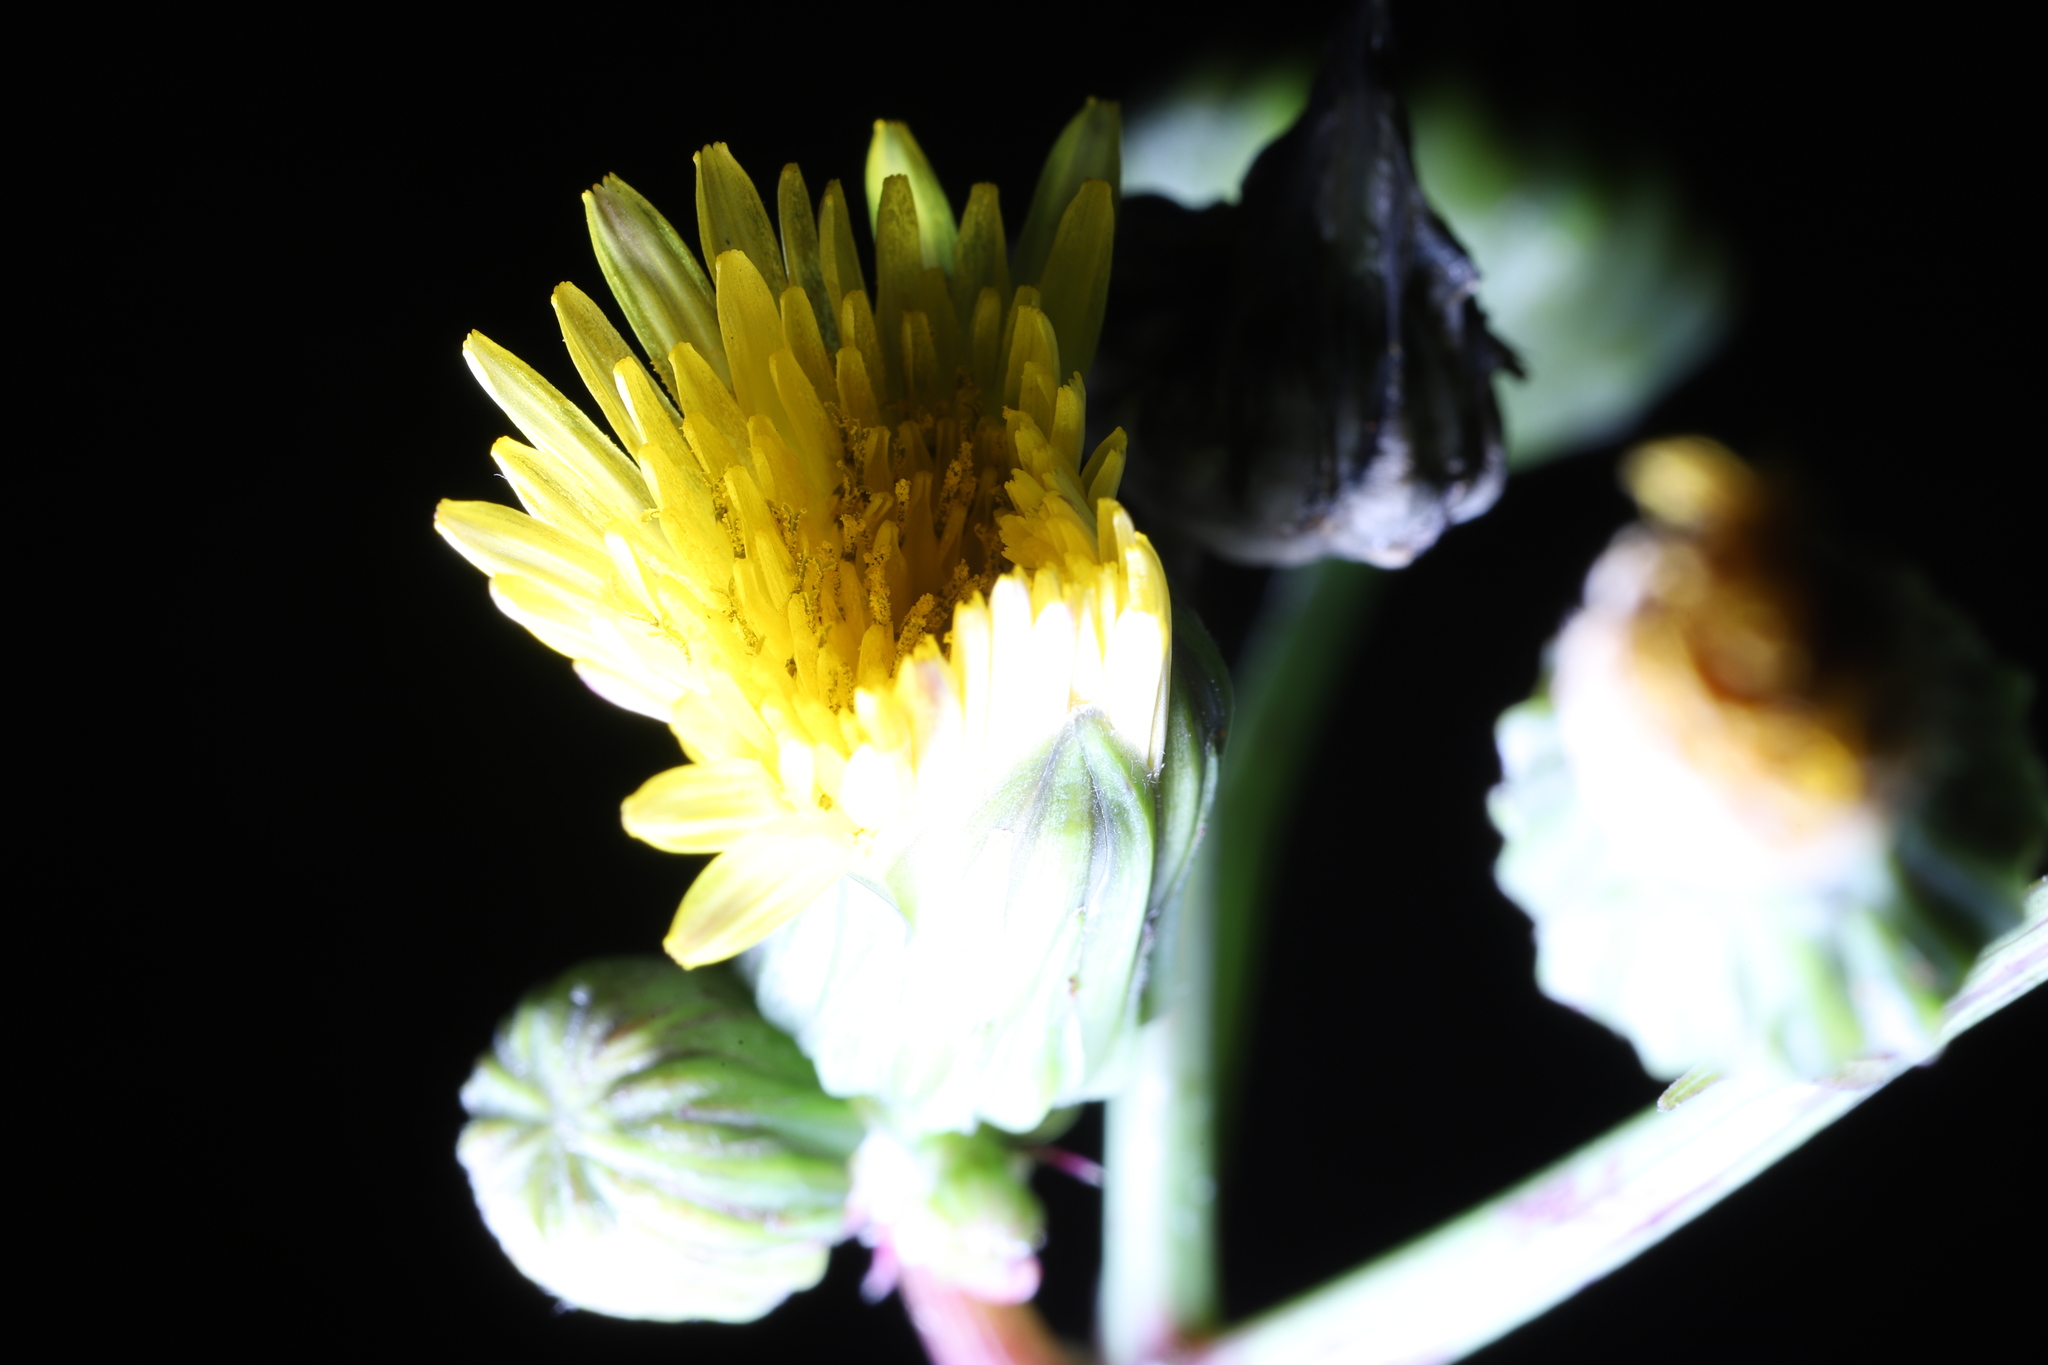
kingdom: Plantae
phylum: Tracheophyta
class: Magnoliopsida
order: Asterales
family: Asteraceae
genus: Sonchus
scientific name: Sonchus oleraceus
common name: Common sowthistle
